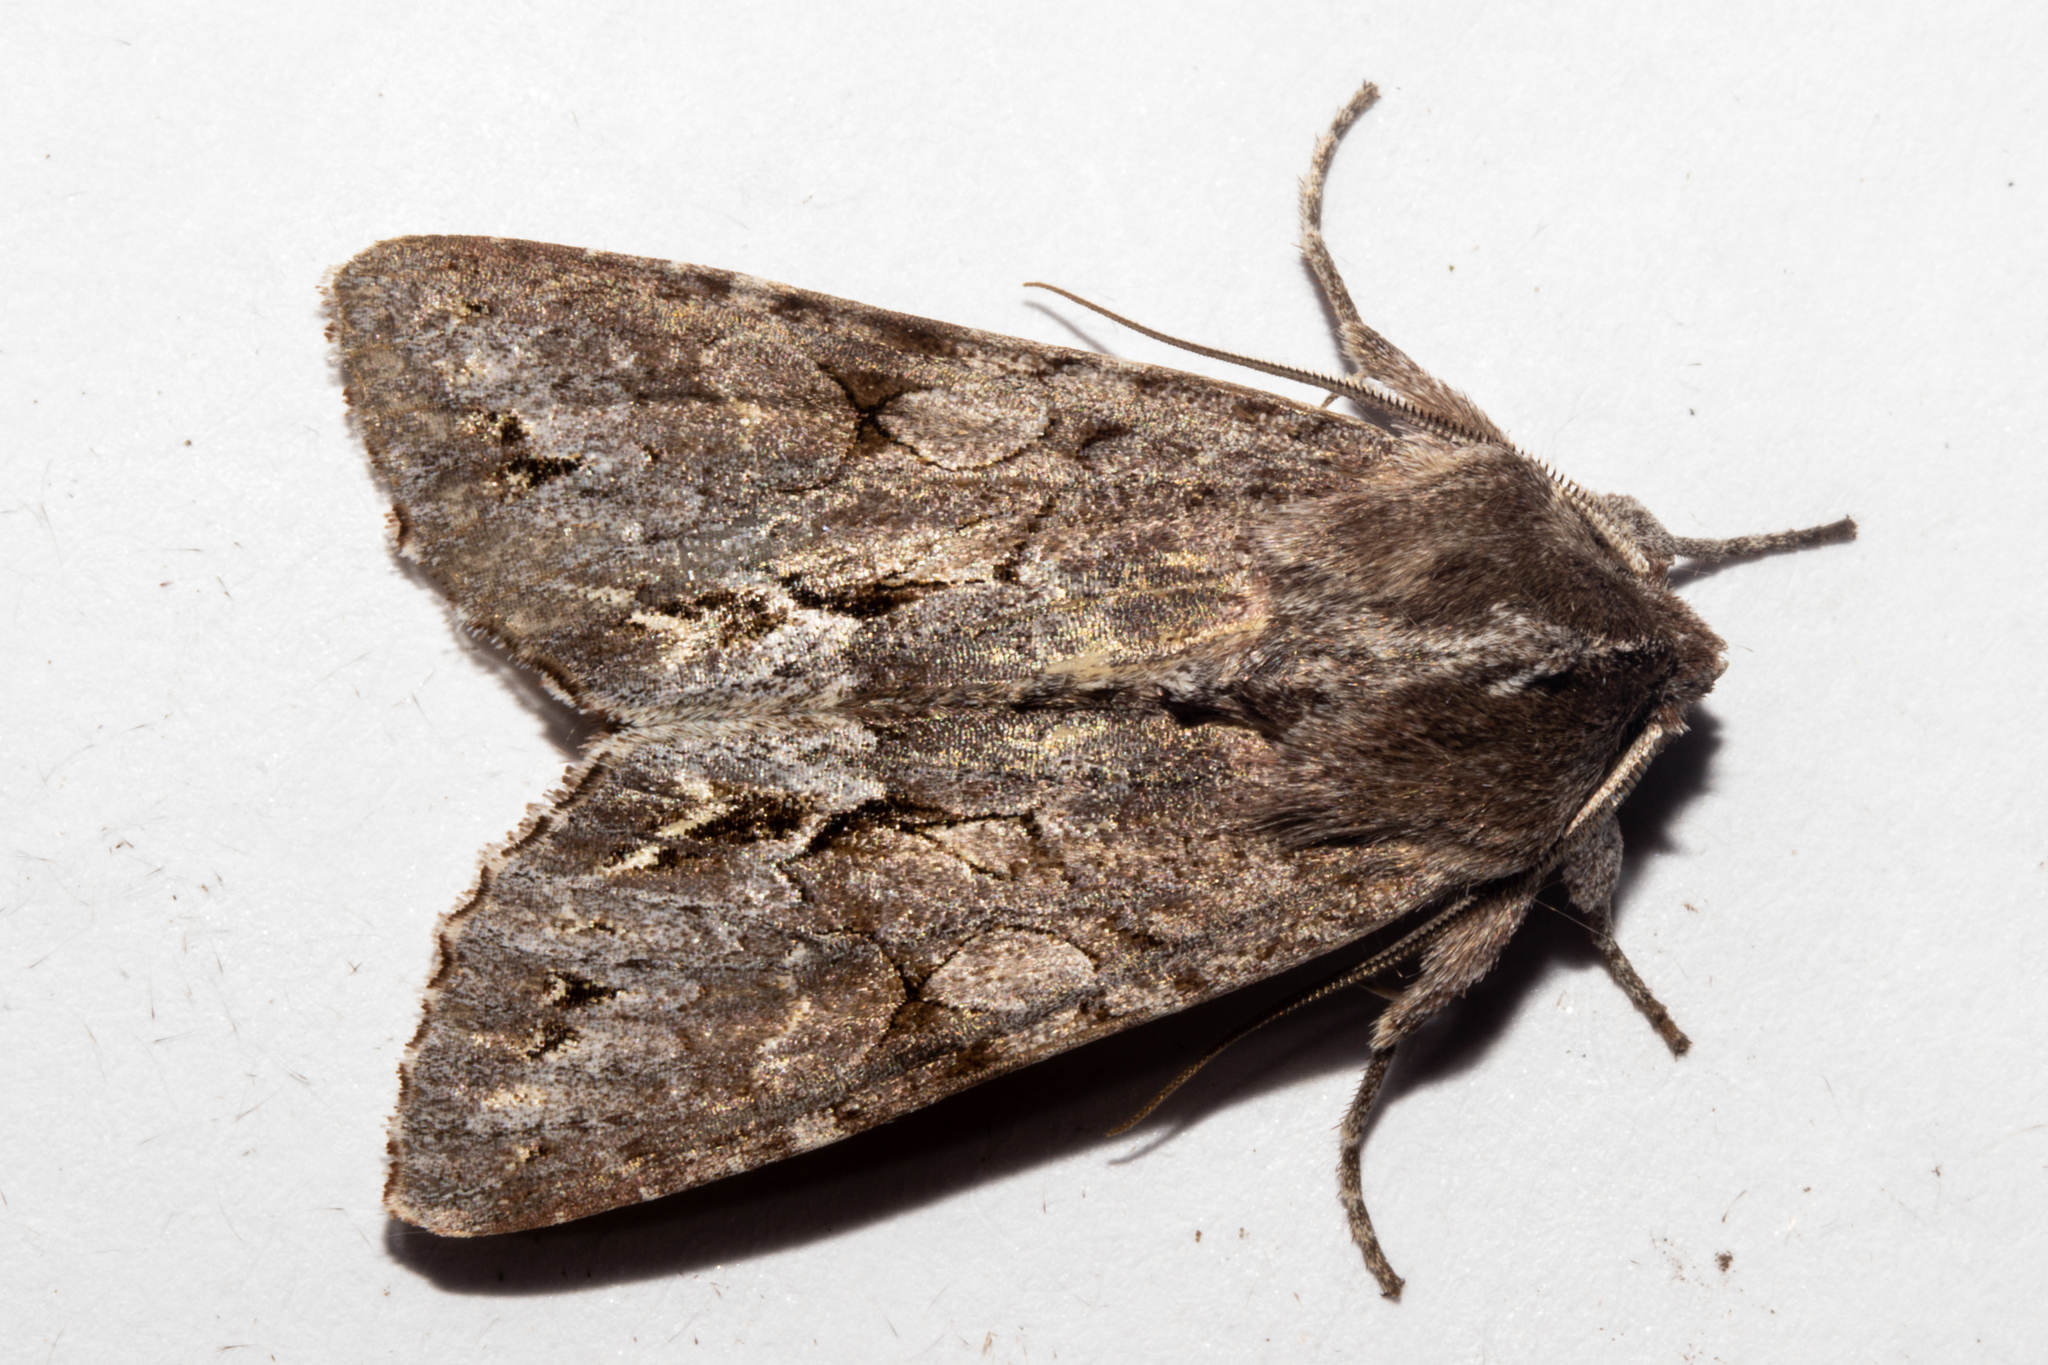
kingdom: Animalia
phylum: Arthropoda
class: Insecta
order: Lepidoptera
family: Noctuidae
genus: Ichneutica
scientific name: Ichneutica
